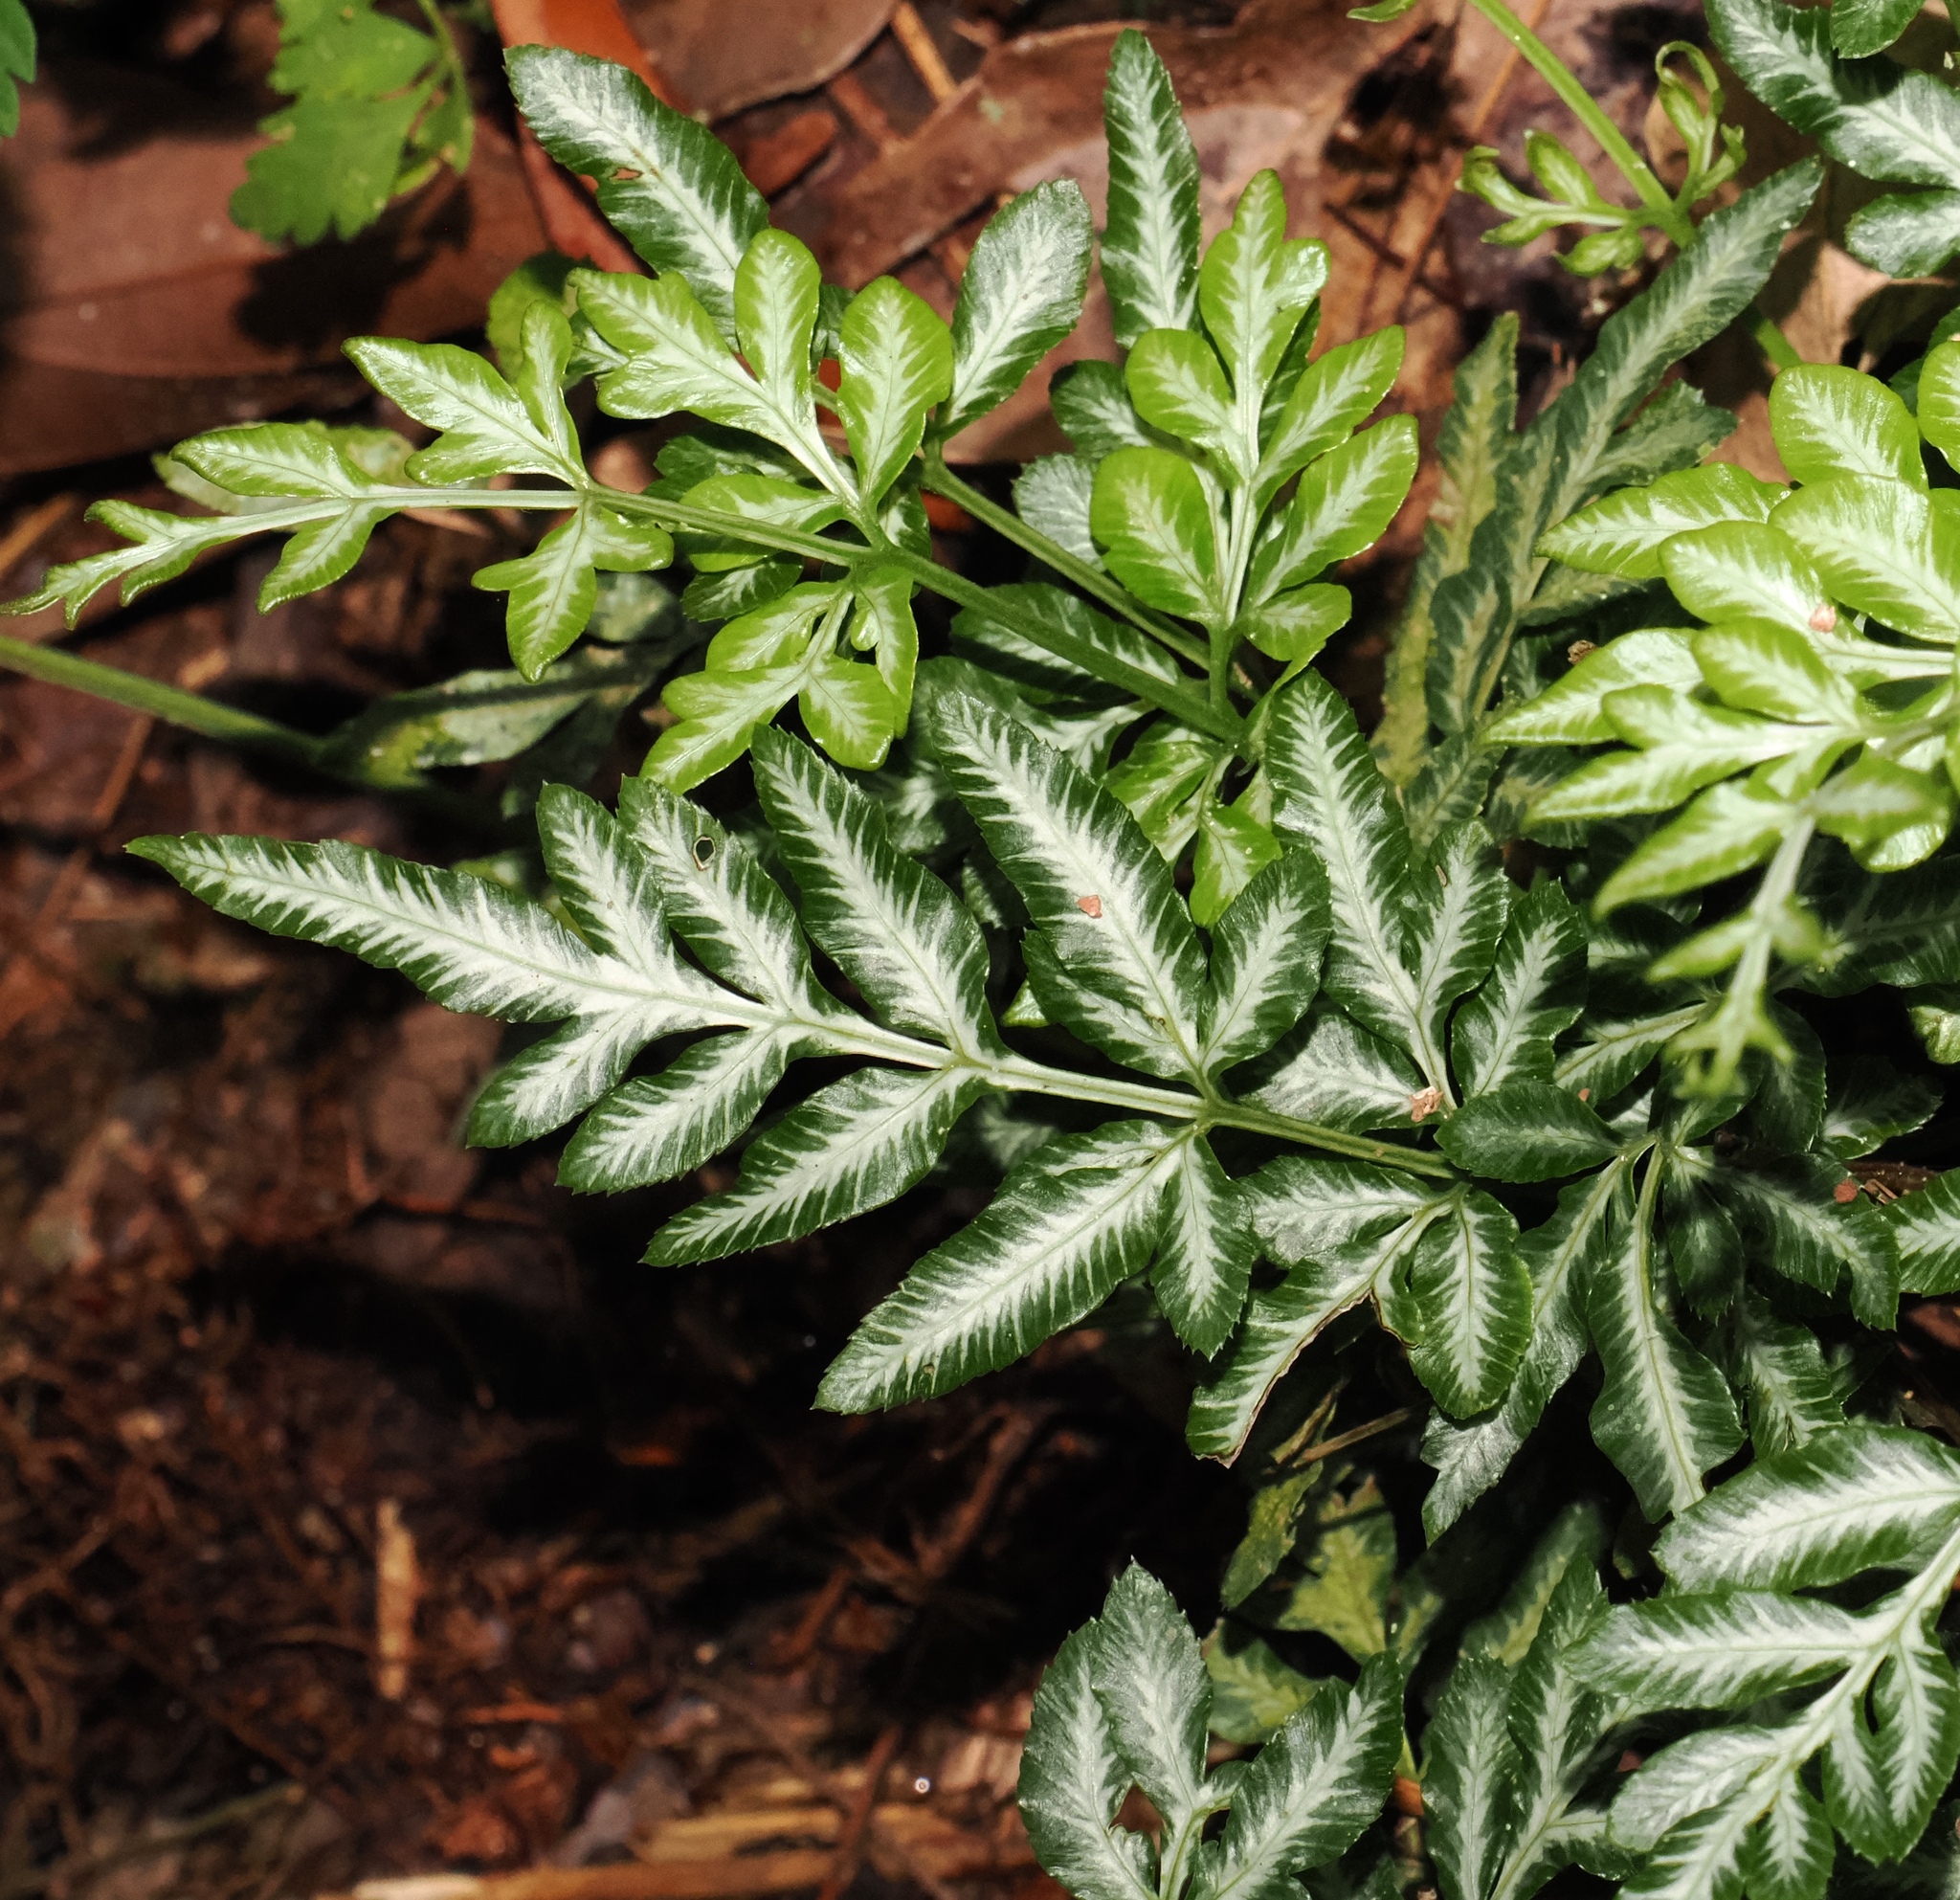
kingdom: Plantae
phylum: Tracheophyta
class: Polypodiopsida
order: Polypodiales
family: Pteridaceae
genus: Pteris
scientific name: Pteris ensiformis
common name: Sword brake
